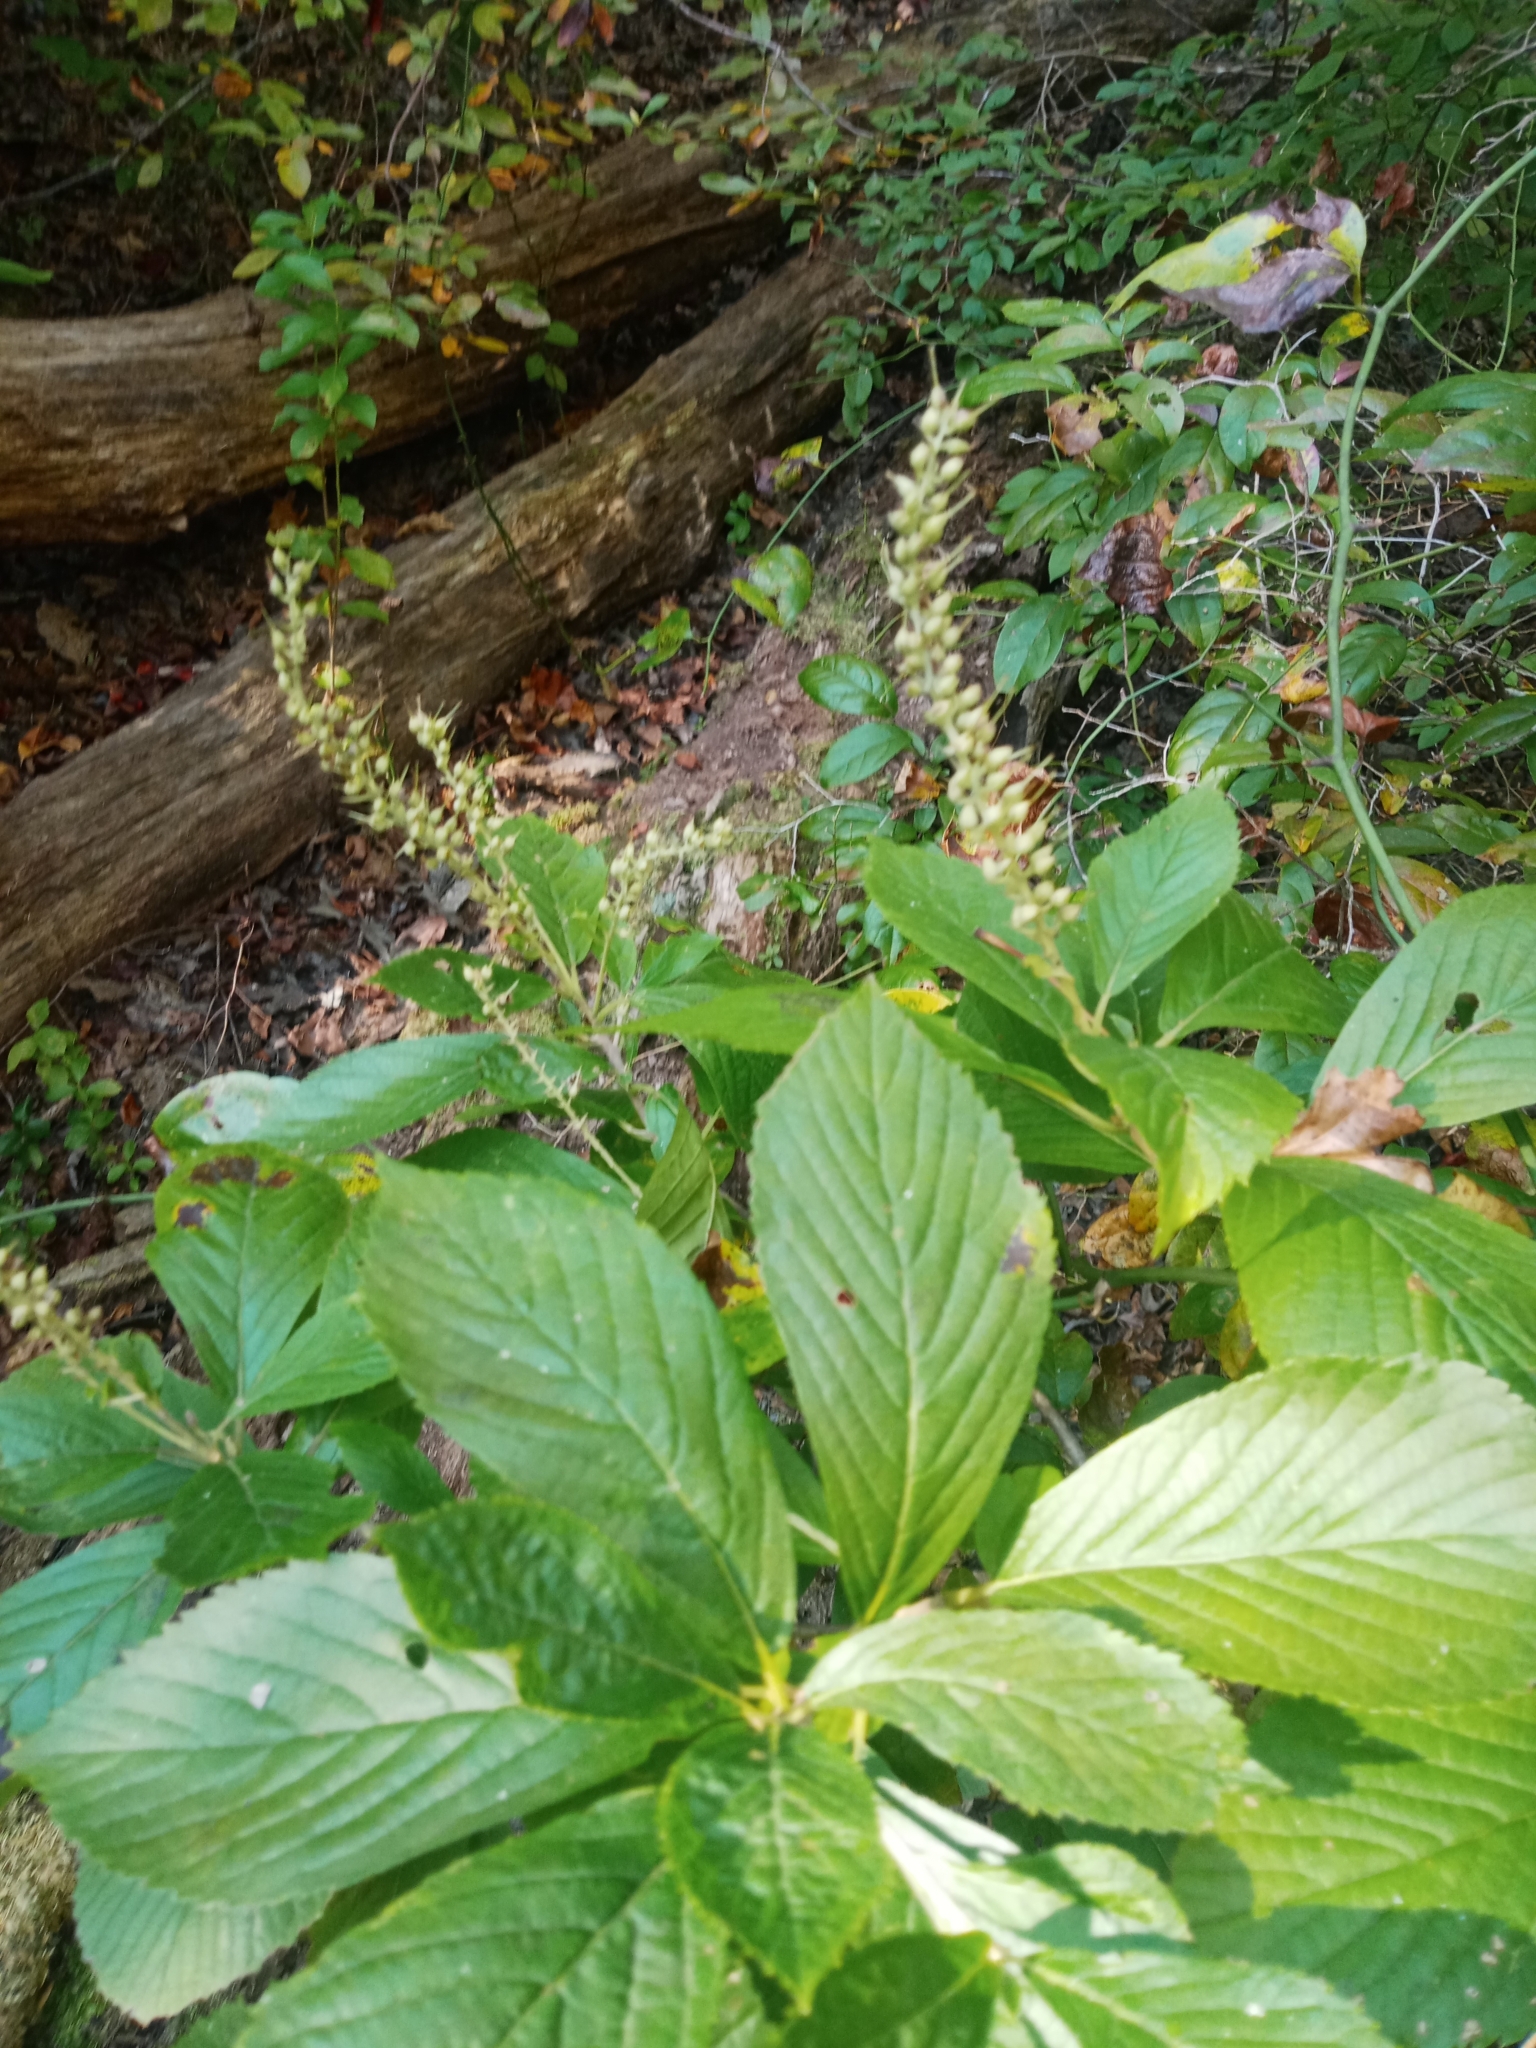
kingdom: Plantae
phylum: Tracheophyta
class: Magnoliopsida
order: Ericales
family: Clethraceae
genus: Clethra
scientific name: Clethra alnifolia
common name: Sweet pepperbush
